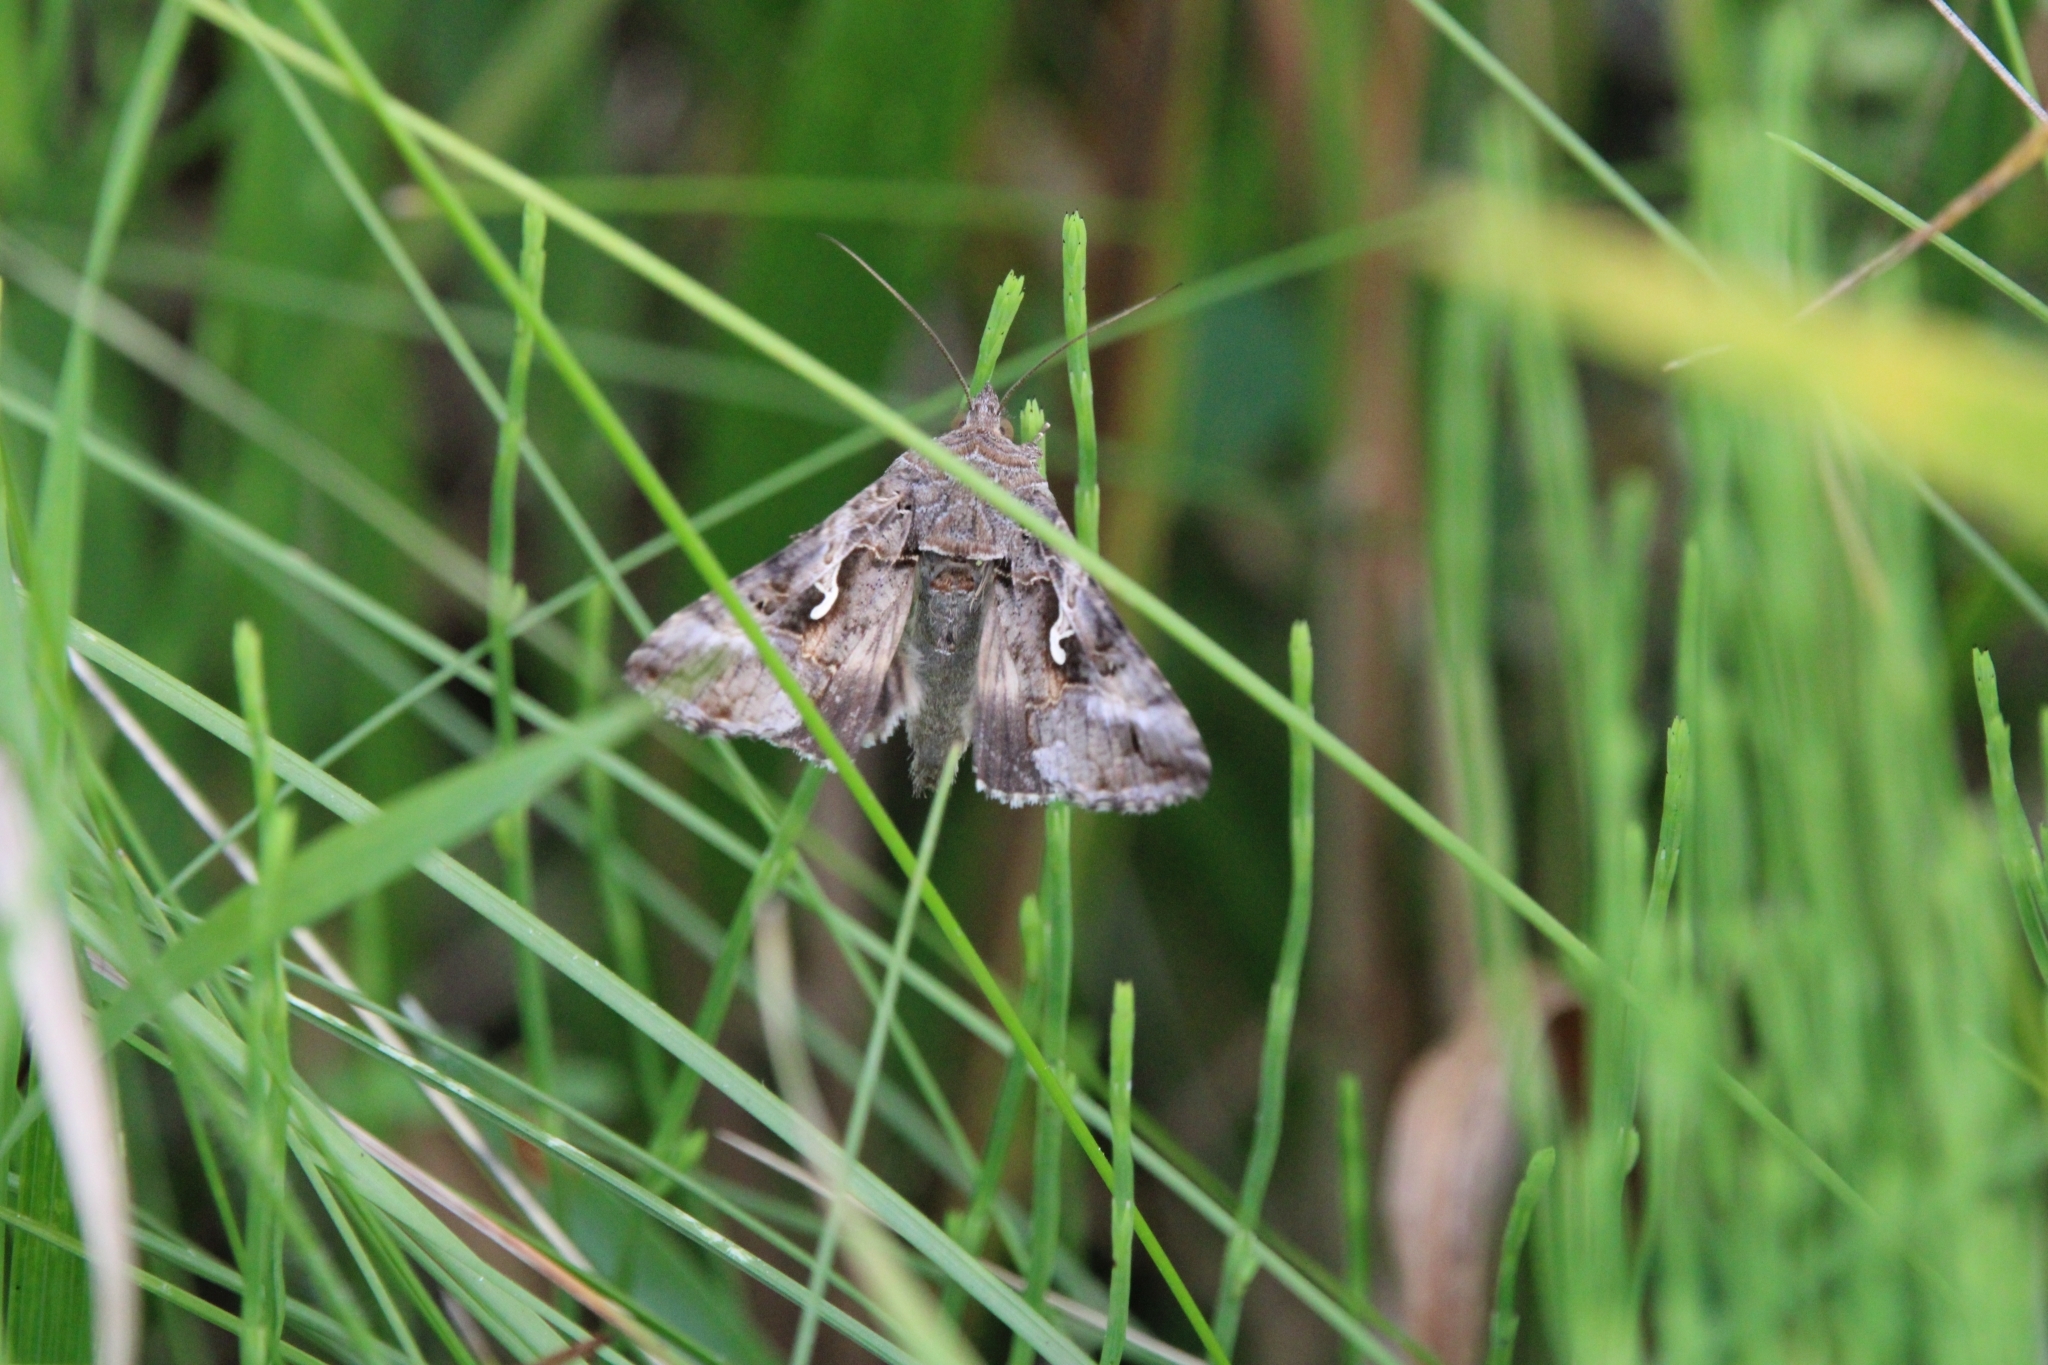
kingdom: Animalia
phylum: Arthropoda
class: Insecta
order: Lepidoptera
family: Noctuidae
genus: Autographa
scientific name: Autographa gamma
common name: Silver y
